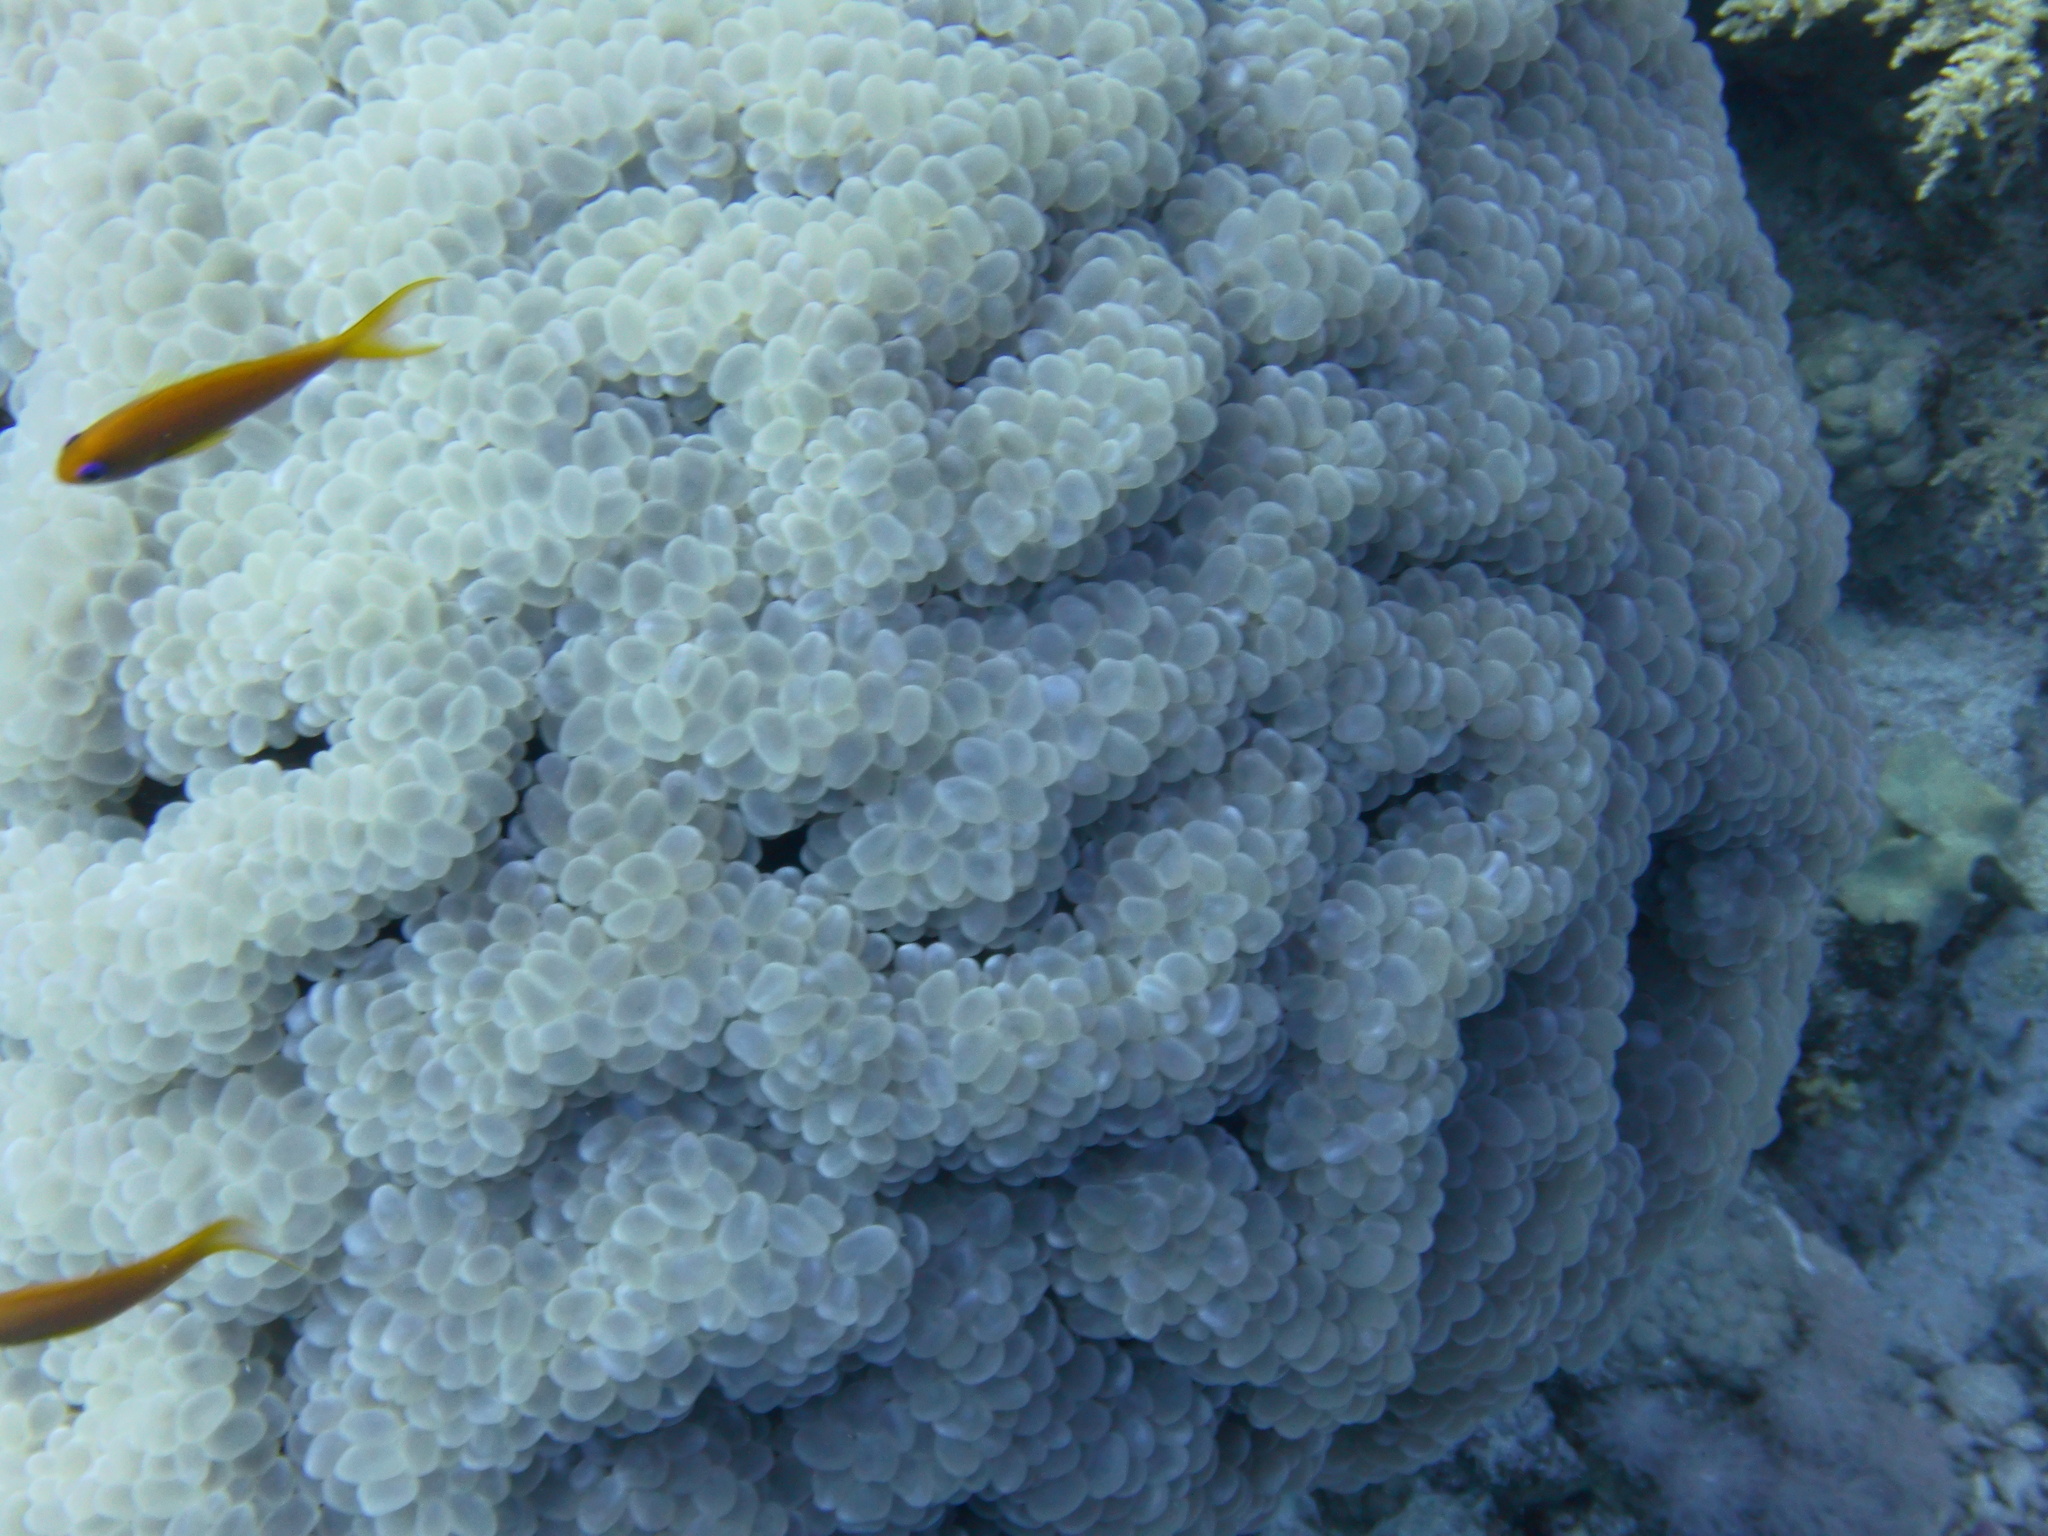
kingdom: Animalia
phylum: Cnidaria
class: Anthozoa
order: Scleractinia
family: Plerogyridae
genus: Plerogyra
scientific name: Plerogyra sinuosa
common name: Bubble coral
